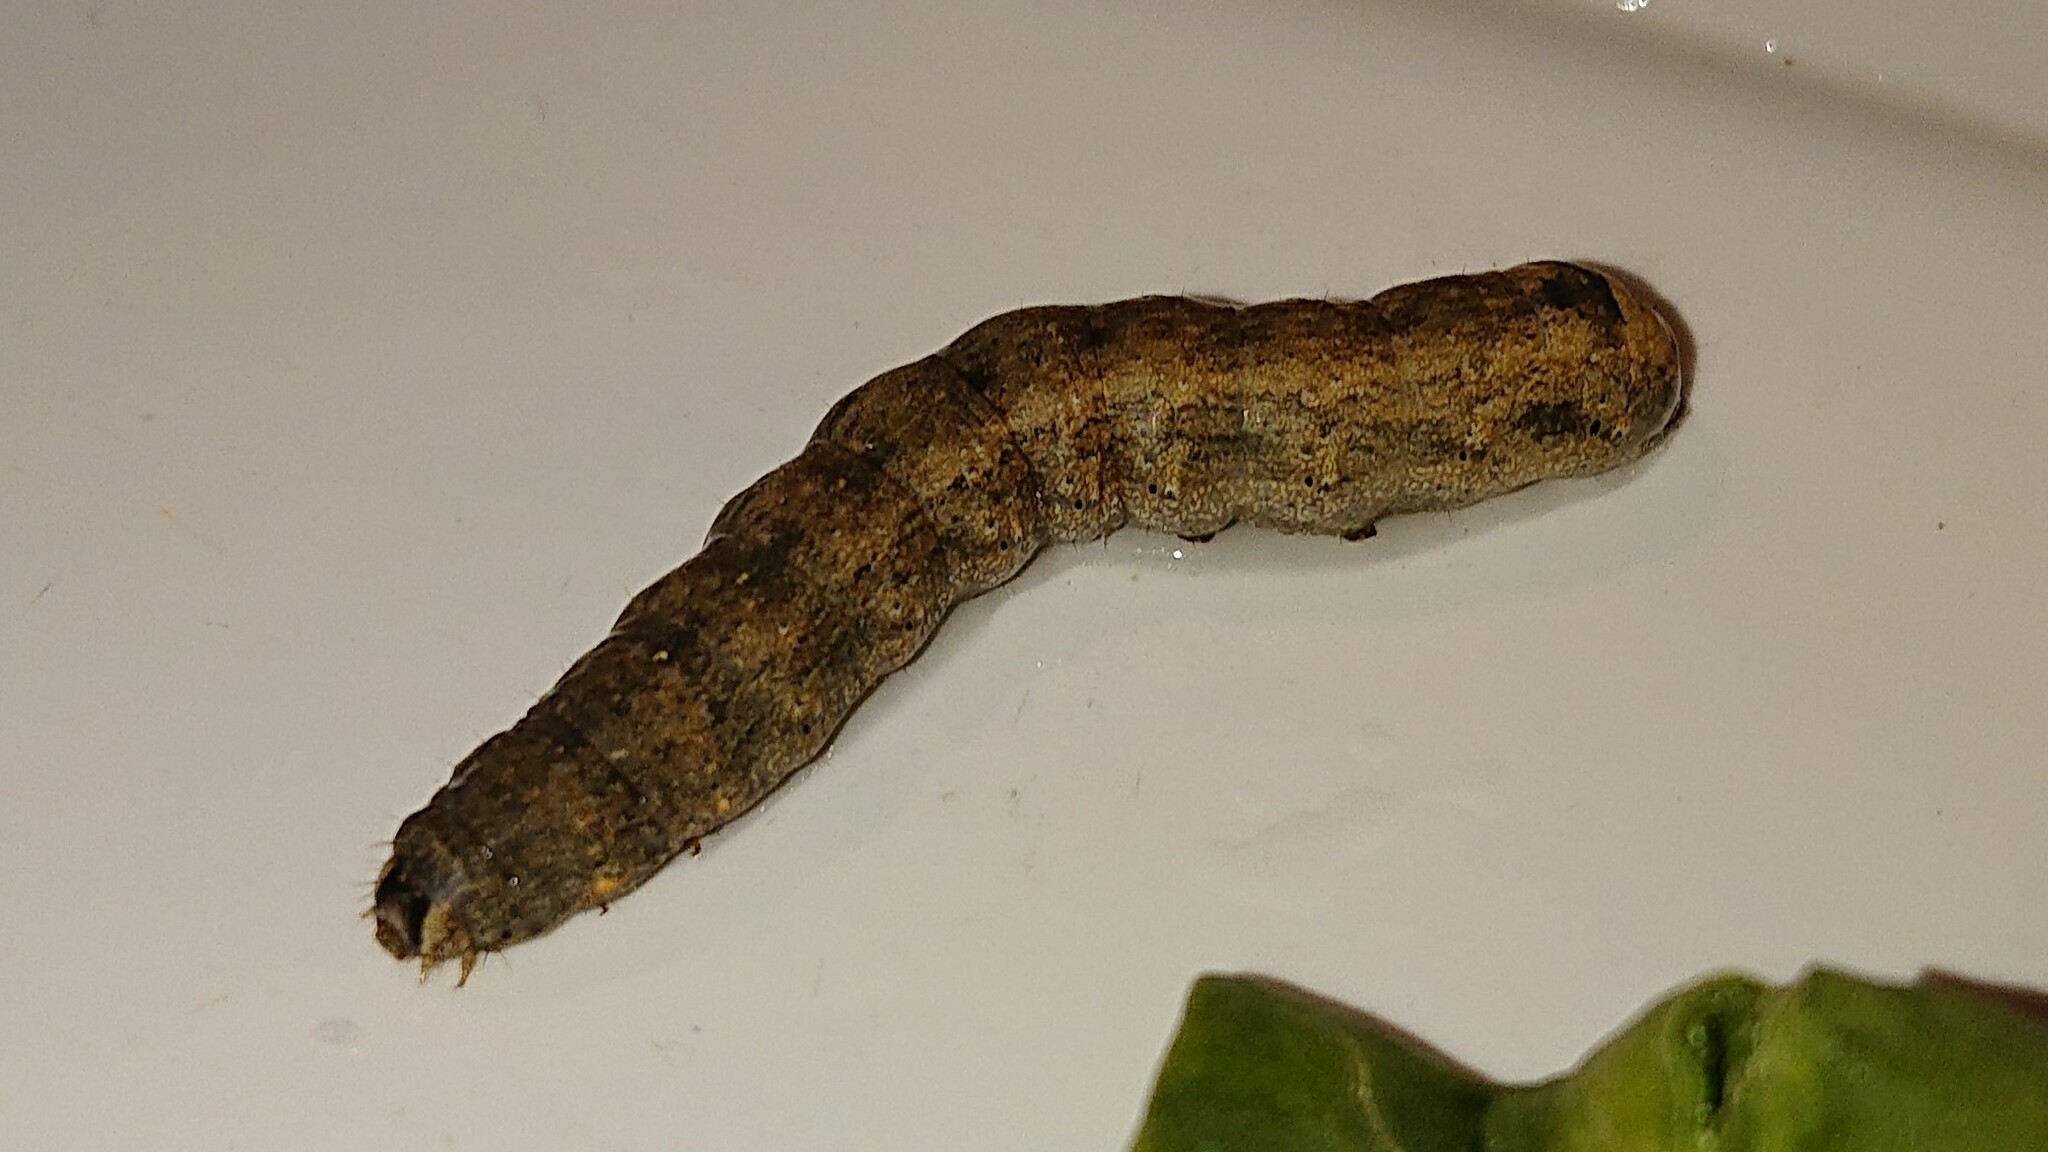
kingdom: Animalia
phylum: Arthropoda
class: Insecta
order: Lepidoptera
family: Noctuidae
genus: Peridroma
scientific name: Peridroma saucia
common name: Pearly underwing
